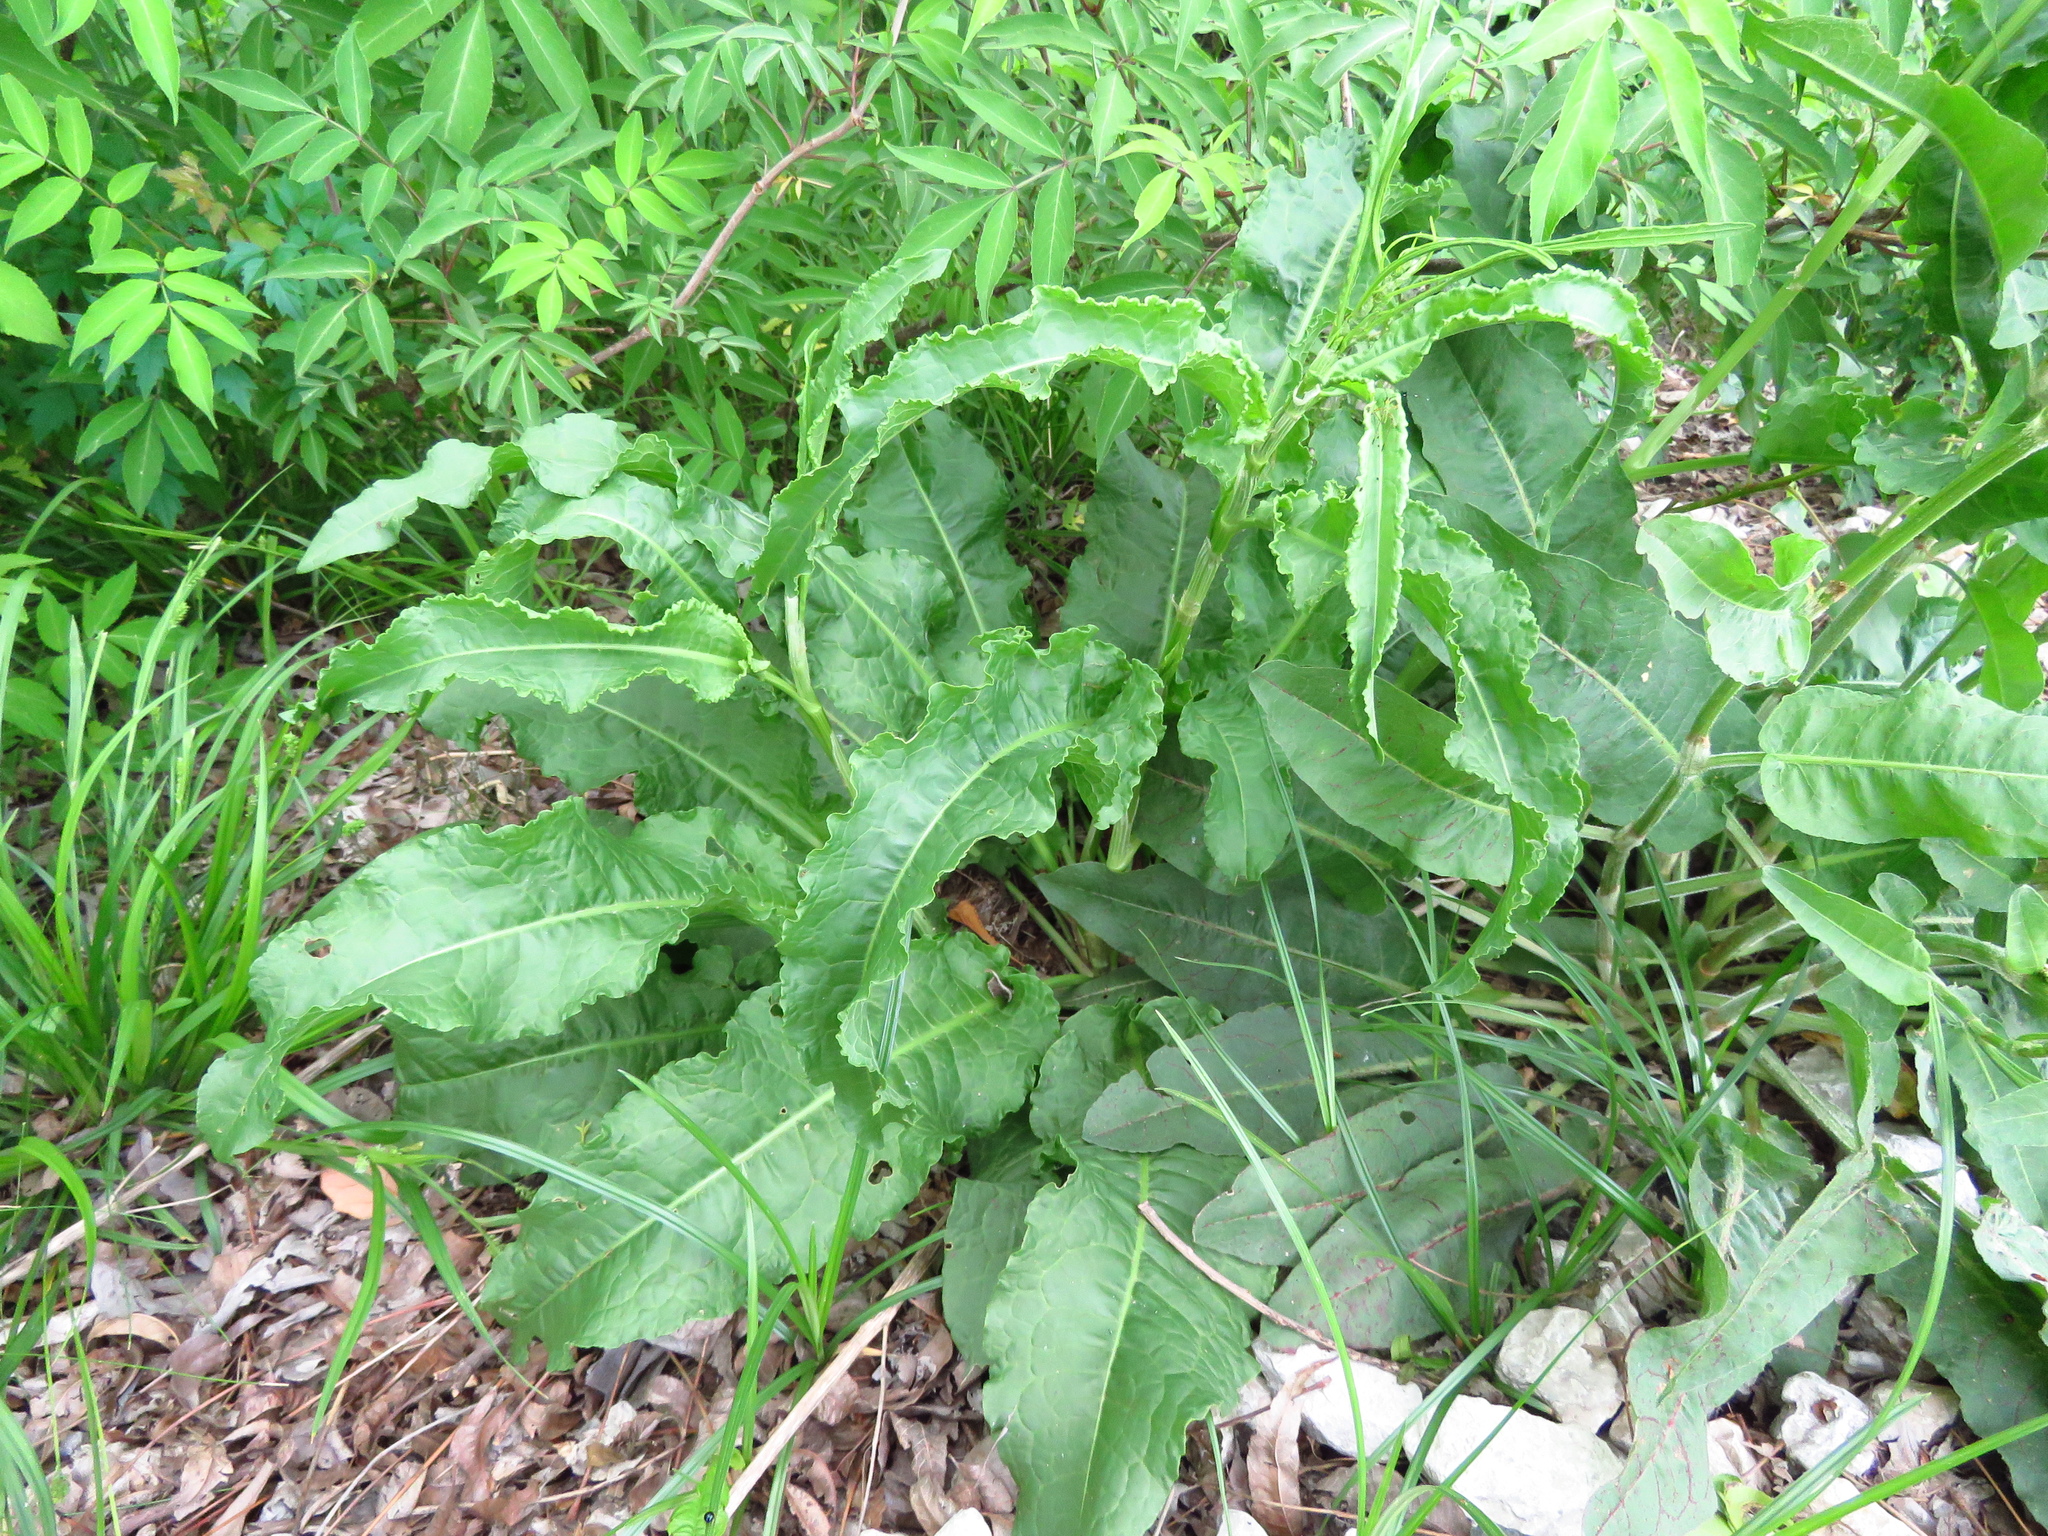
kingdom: Plantae
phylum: Tracheophyta
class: Magnoliopsida
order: Caryophyllales
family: Polygonaceae
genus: Rumex
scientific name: Rumex crispus
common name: Curled dock
